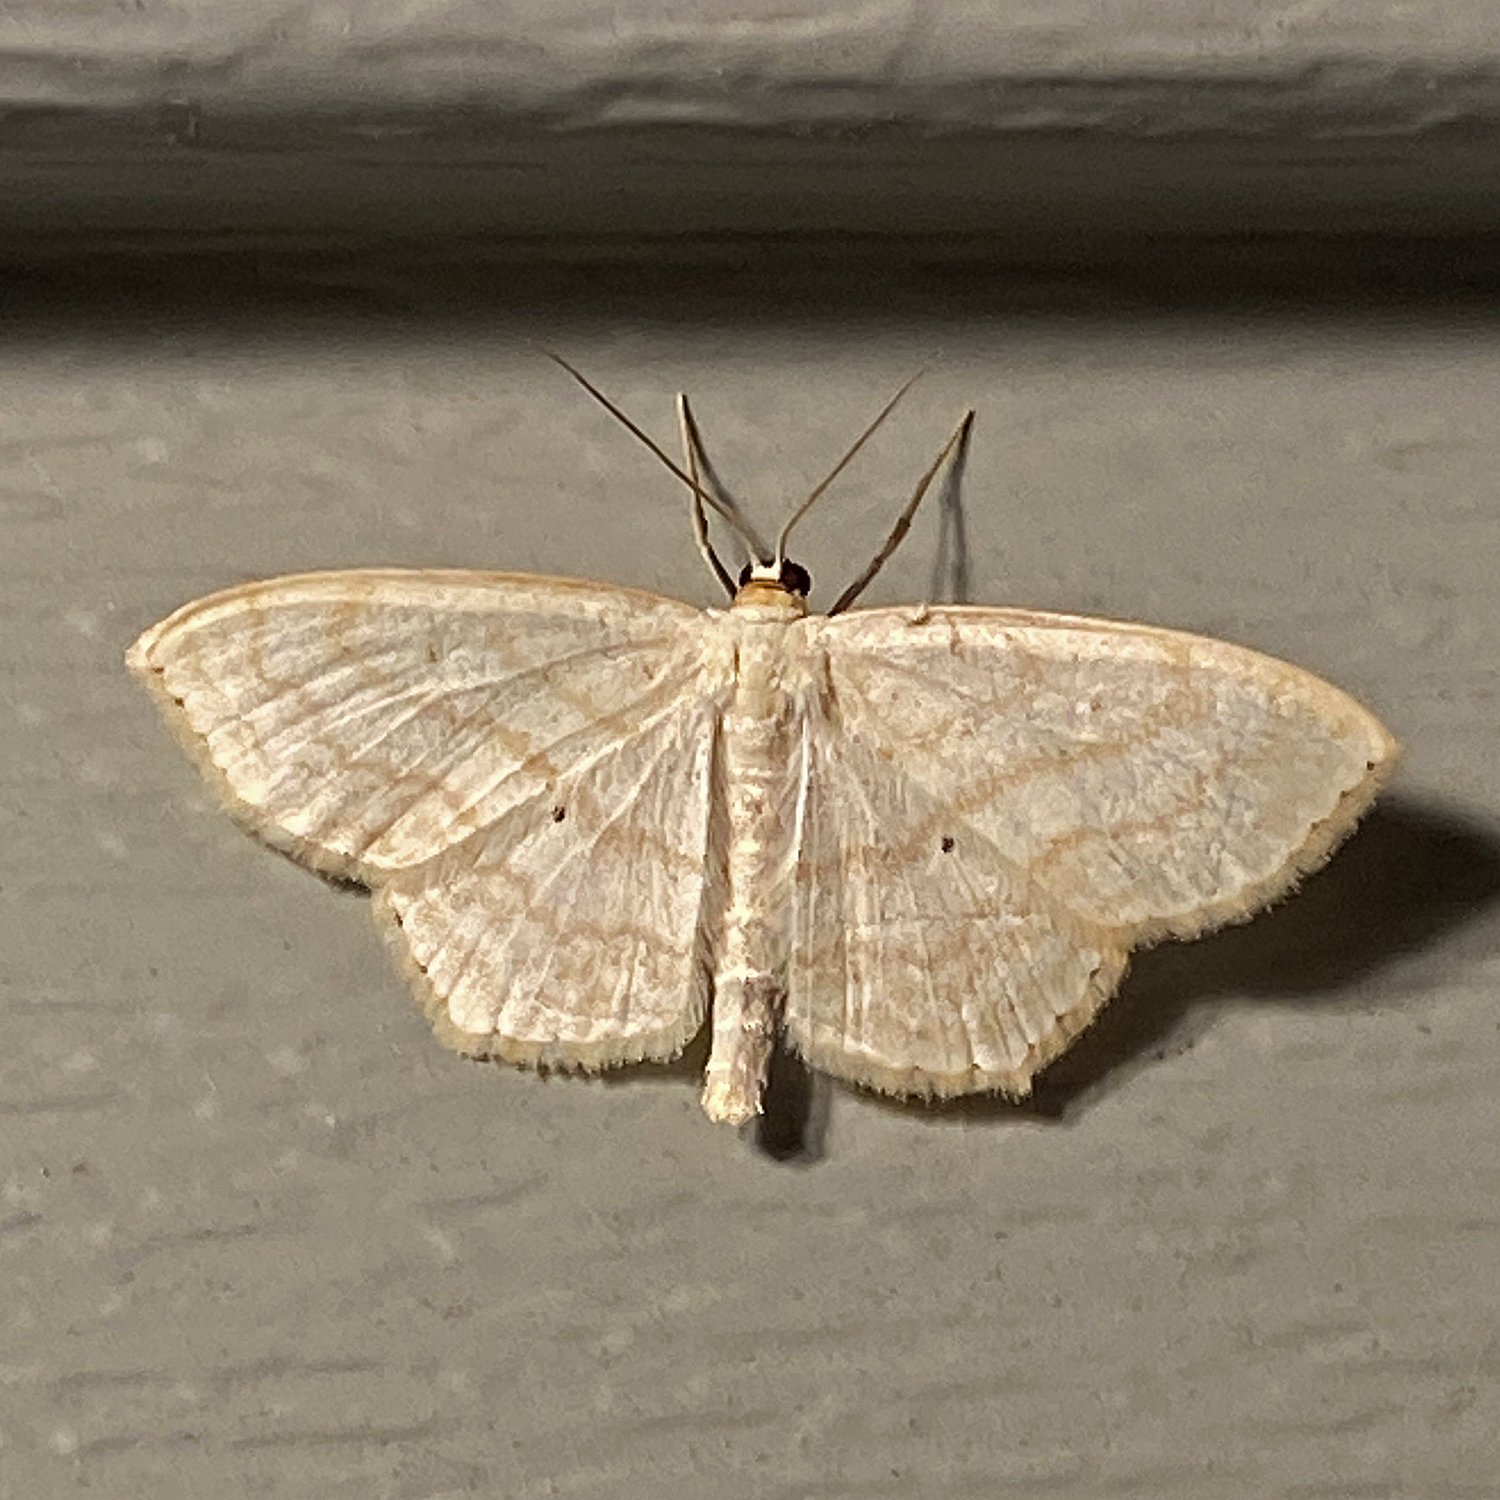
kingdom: Animalia
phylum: Arthropoda
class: Insecta
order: Lepidoptera
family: Geometridae
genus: Scopula
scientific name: Scopula limboundata
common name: Large lace border
